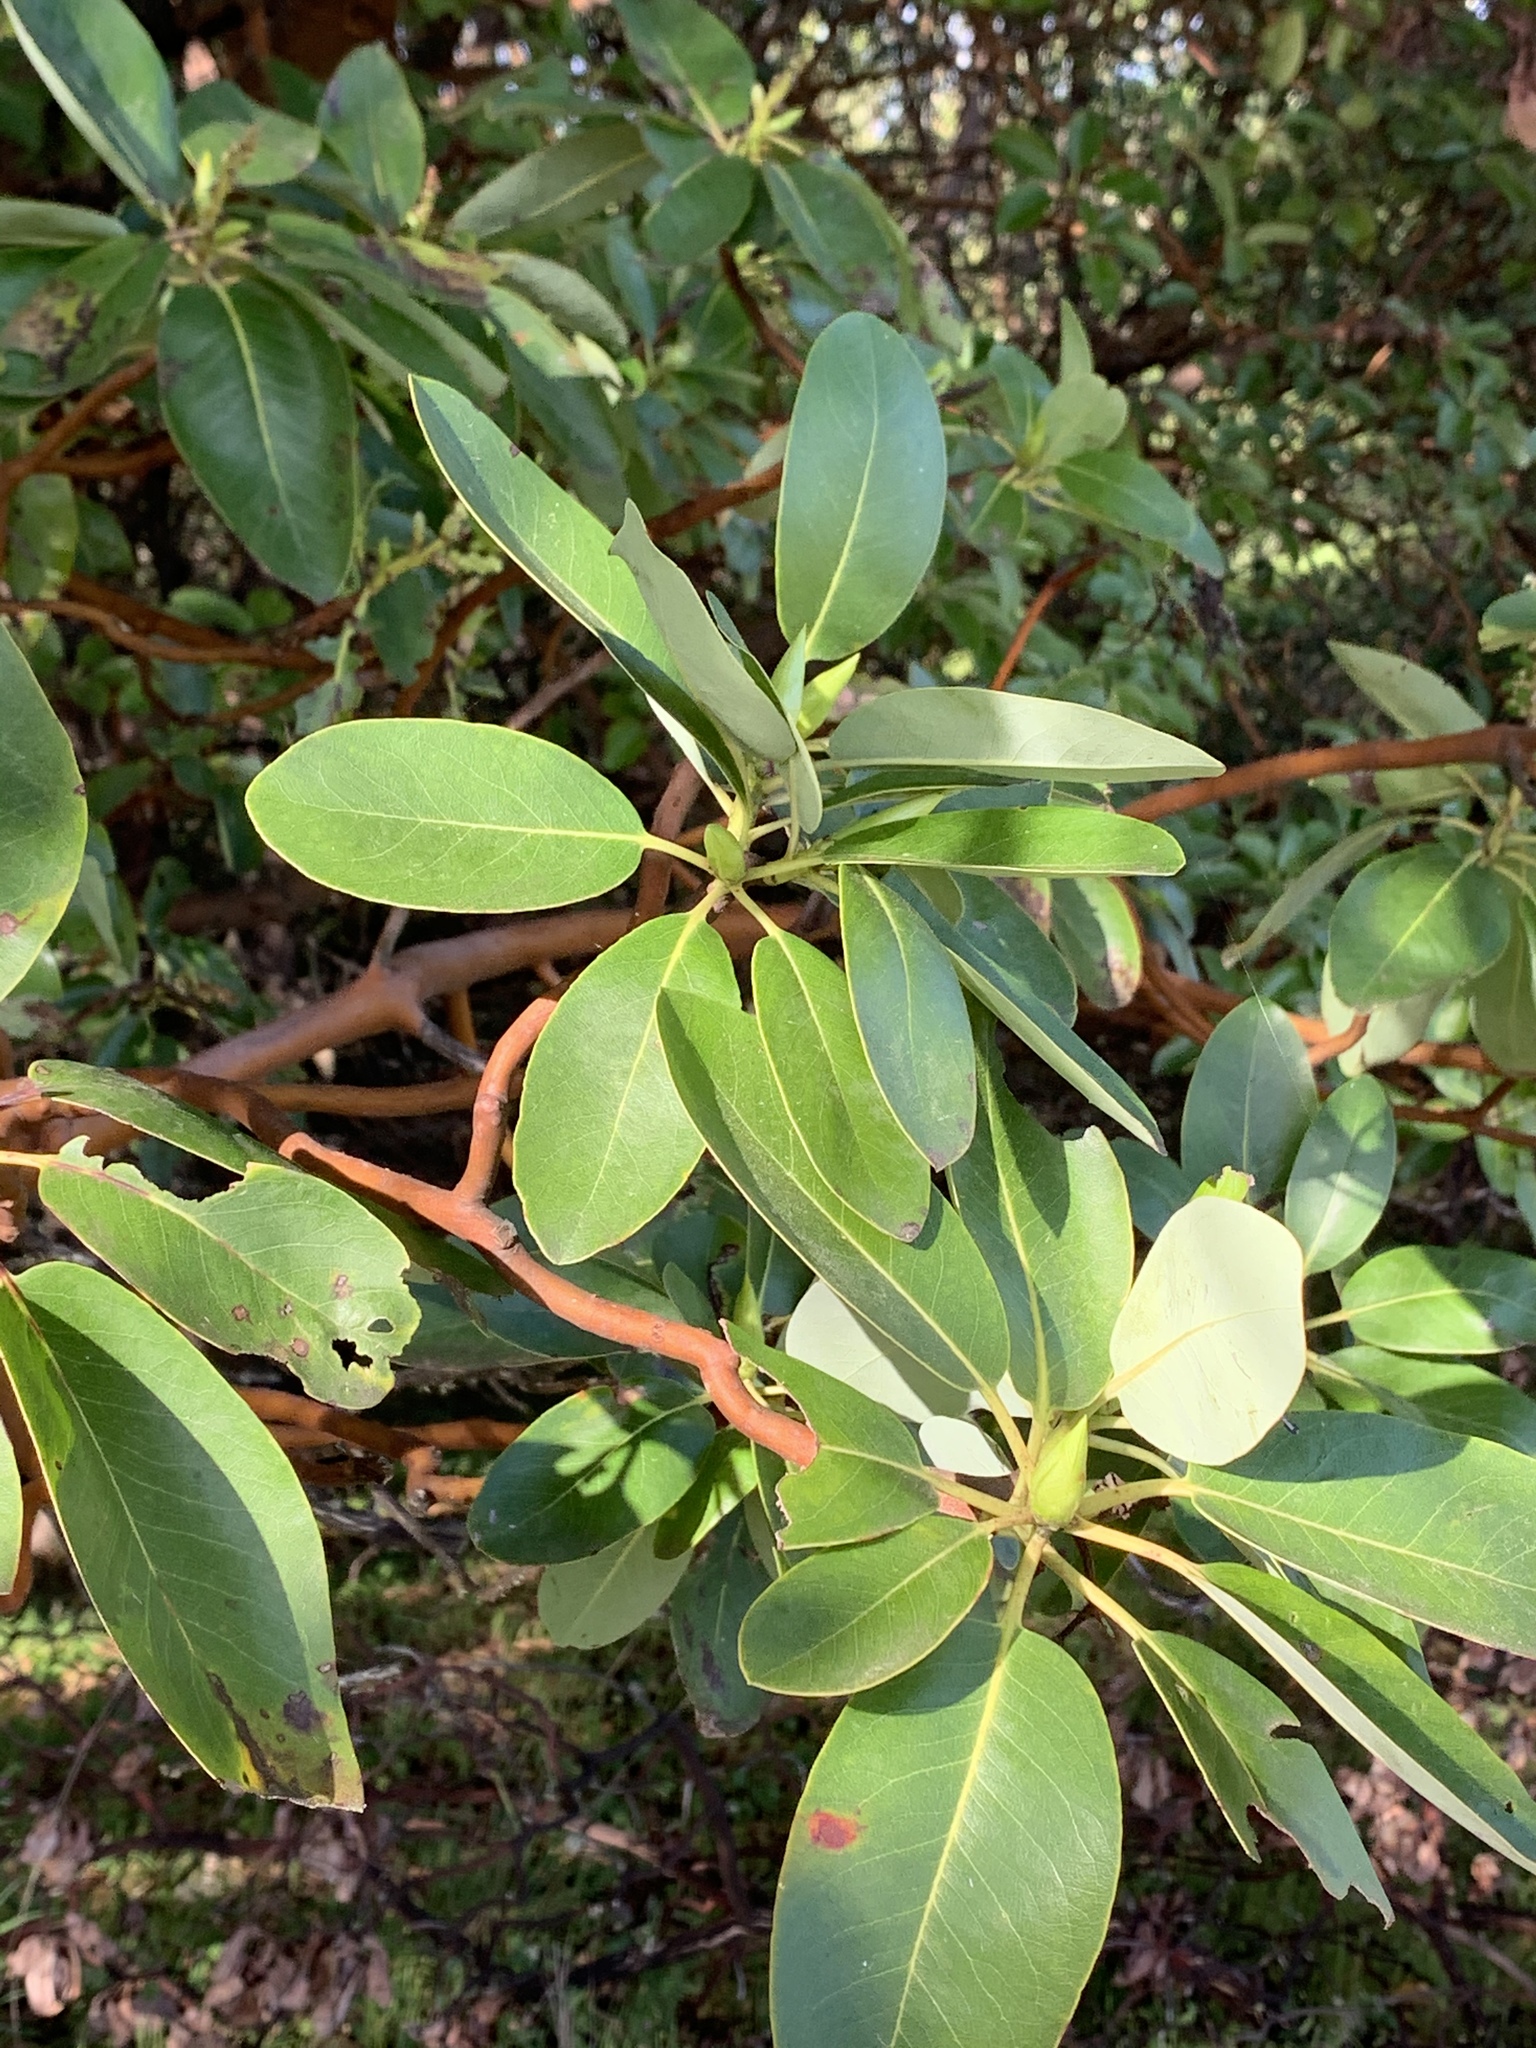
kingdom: Plantae
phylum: Tracheophyta
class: Magnoliopsida
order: Ericales
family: Ericaceae
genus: Arbutus
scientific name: Arbutus menziesii
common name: Pacific madrone
